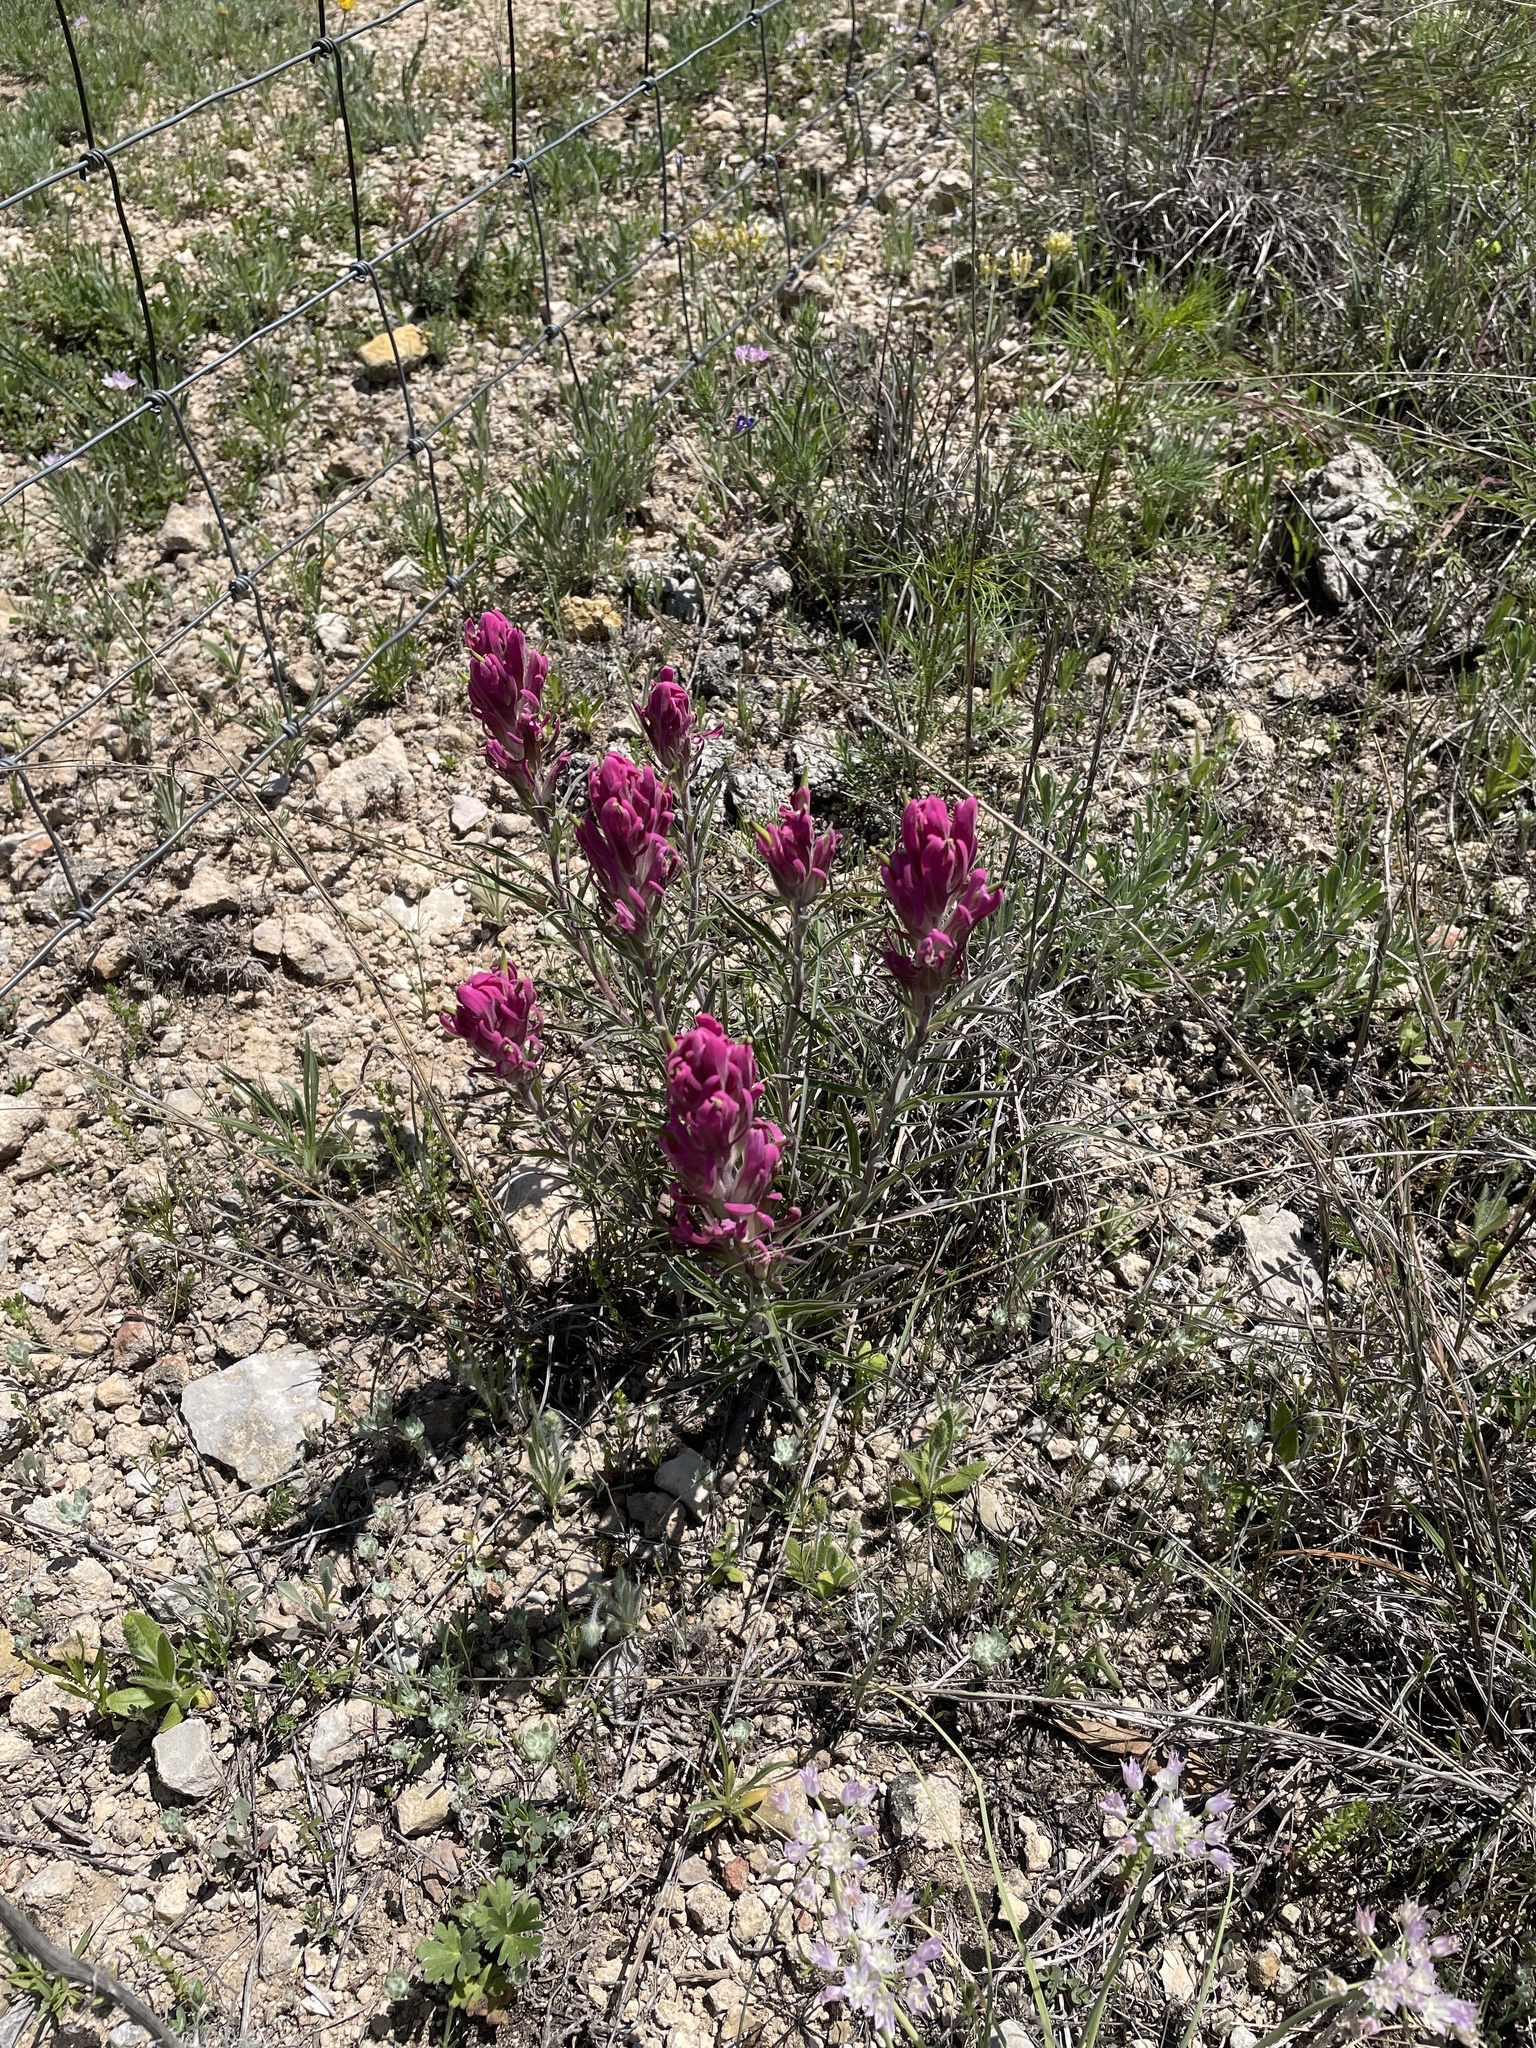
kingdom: Plantae
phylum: Tracheophyta
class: Magnoliopsida
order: Lamiales
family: Orobanchaceae
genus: Castilleja
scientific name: Castilleja purpurea
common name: Plains paintbrush
